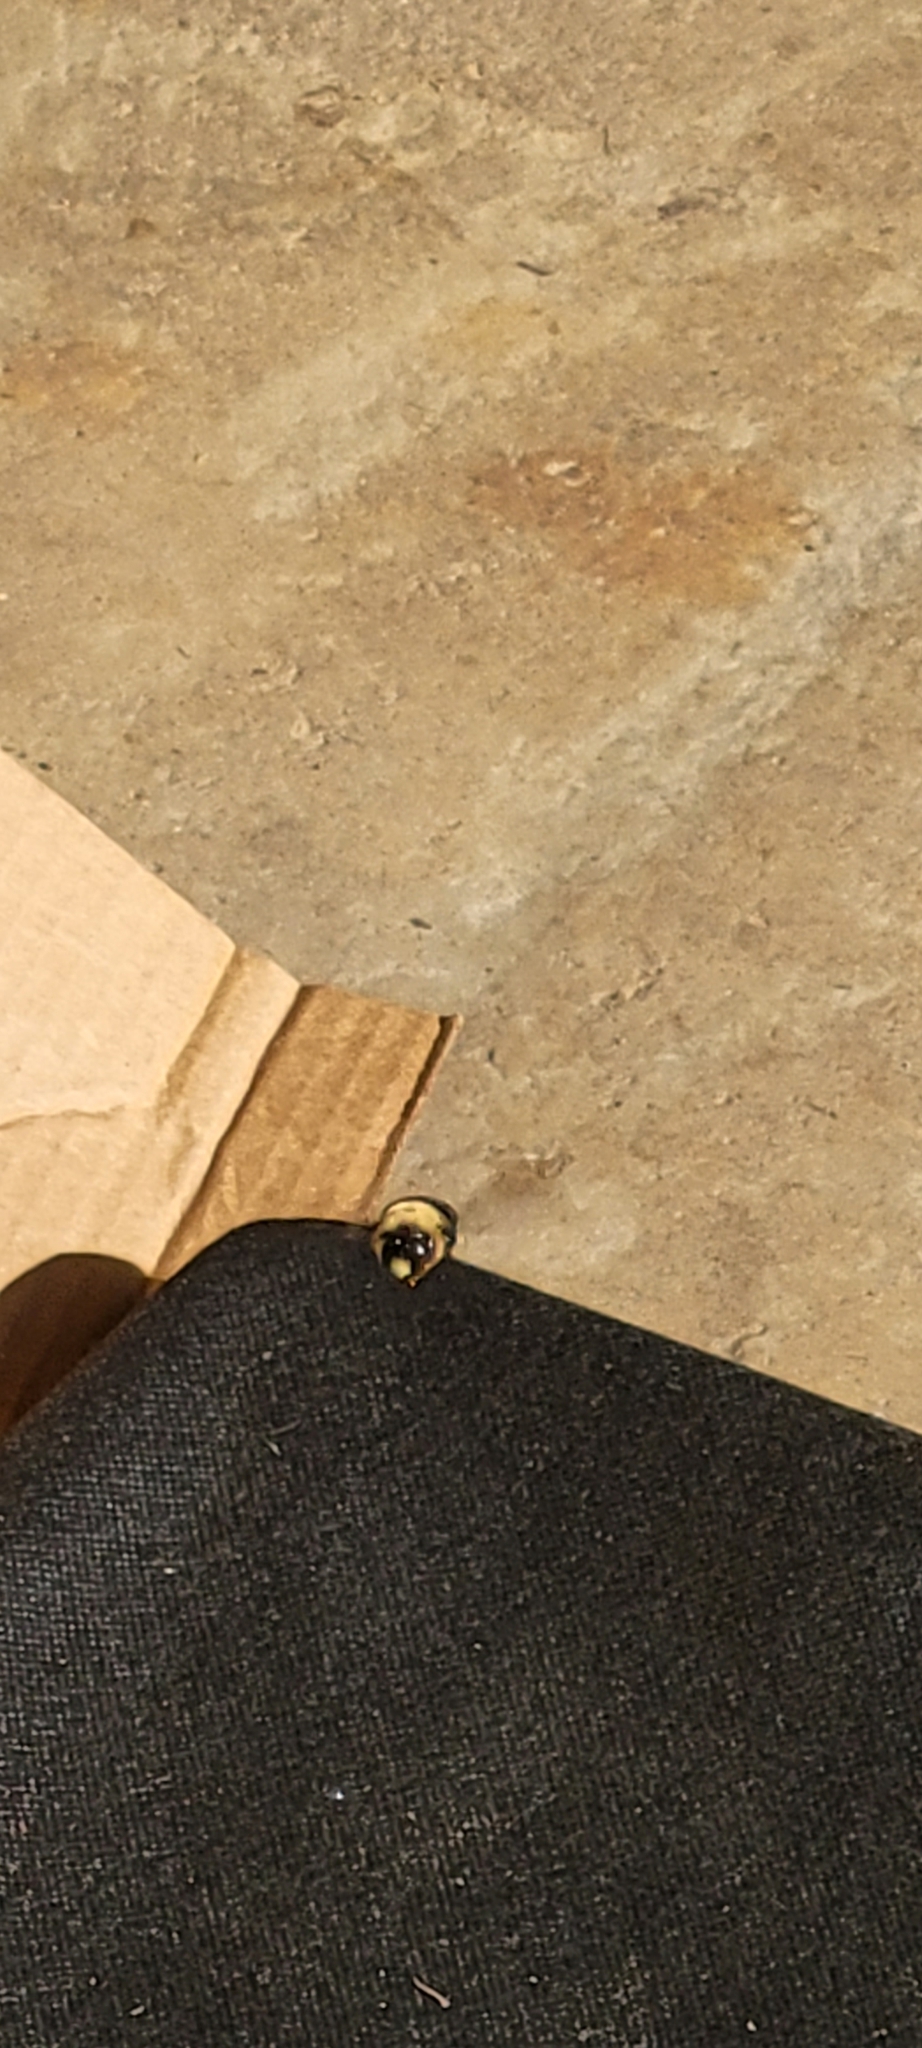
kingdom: Animalia
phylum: Arthropoda
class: Insecta
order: Hymenoptera
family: Apidae
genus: Xylocopa
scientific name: Xylocopa virginica
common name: Carpenter bee
